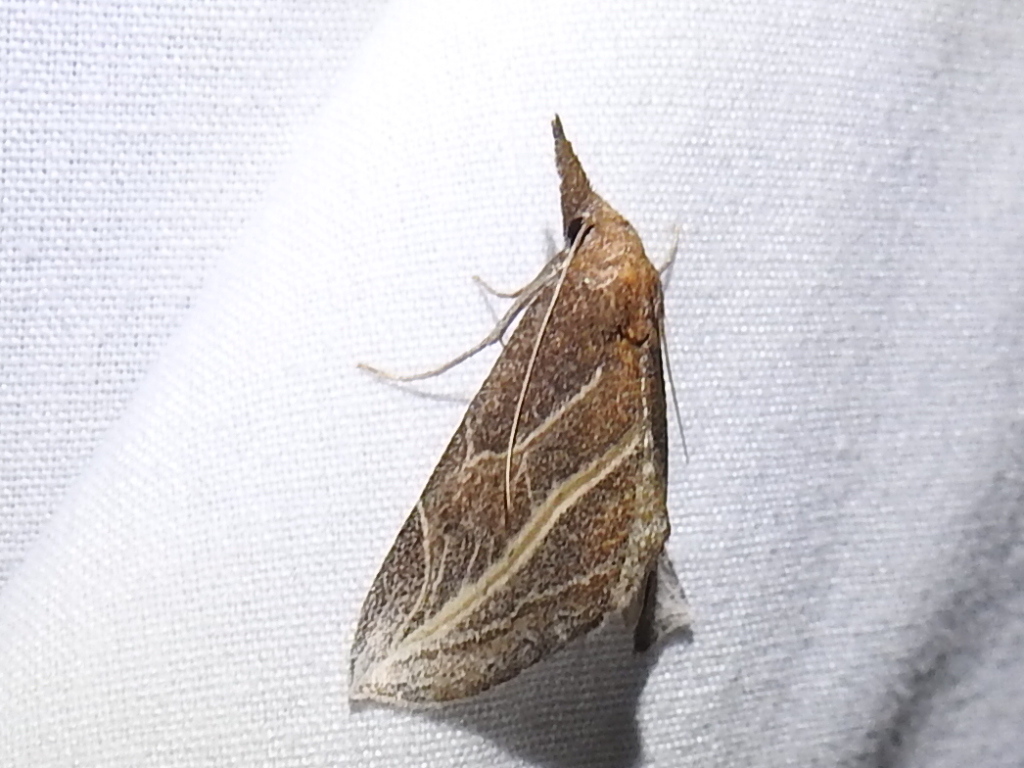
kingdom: Animalia
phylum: Arthropoda
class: Insecta
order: Lepidoptera
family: Erebidae
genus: Phyprosopus
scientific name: Phyprosopus callitrichoides
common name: Curved-lined owlet
